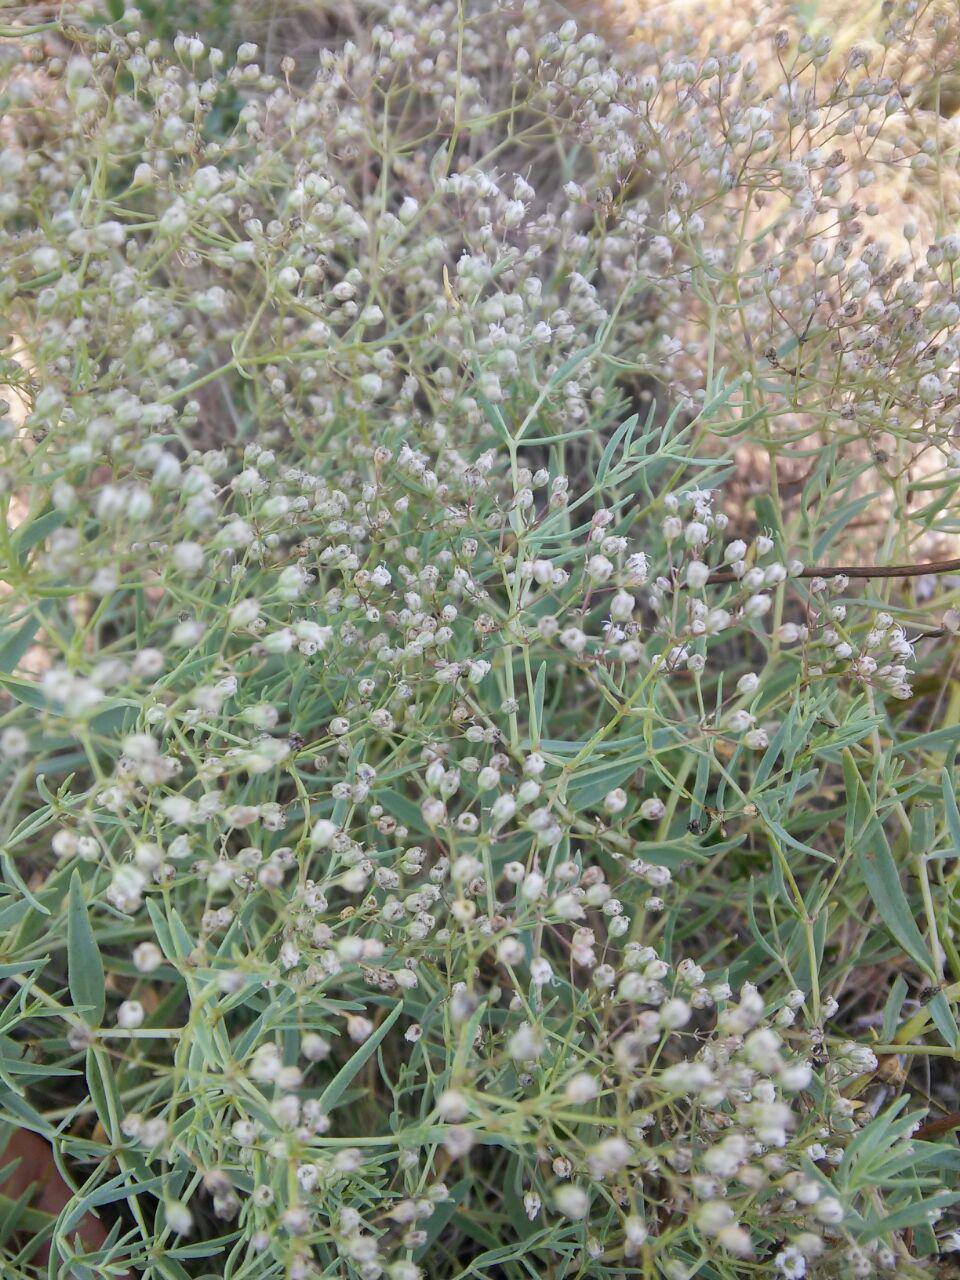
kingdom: Plantae
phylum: Tracheophyta
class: Magnoliopsida
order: Caryophyllales
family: Caryophyllaceae
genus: Gypsophila
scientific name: Gypsophila paniculata
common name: Baby's-breath
